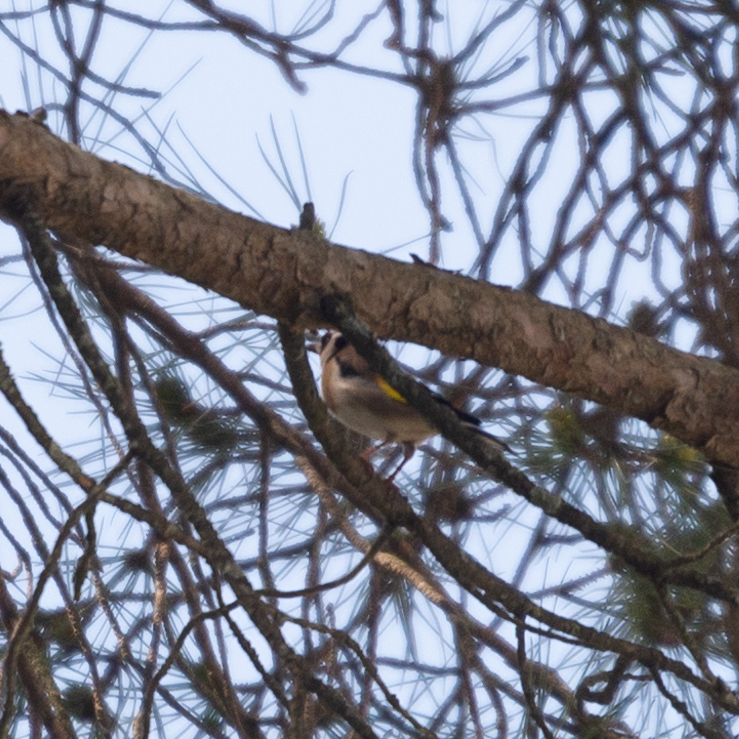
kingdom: Animalia
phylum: Chordata
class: Aves
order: Passeriformes
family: Fringillidae
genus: Carduelis
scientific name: Carduelis carduelis
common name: European goldfinch
